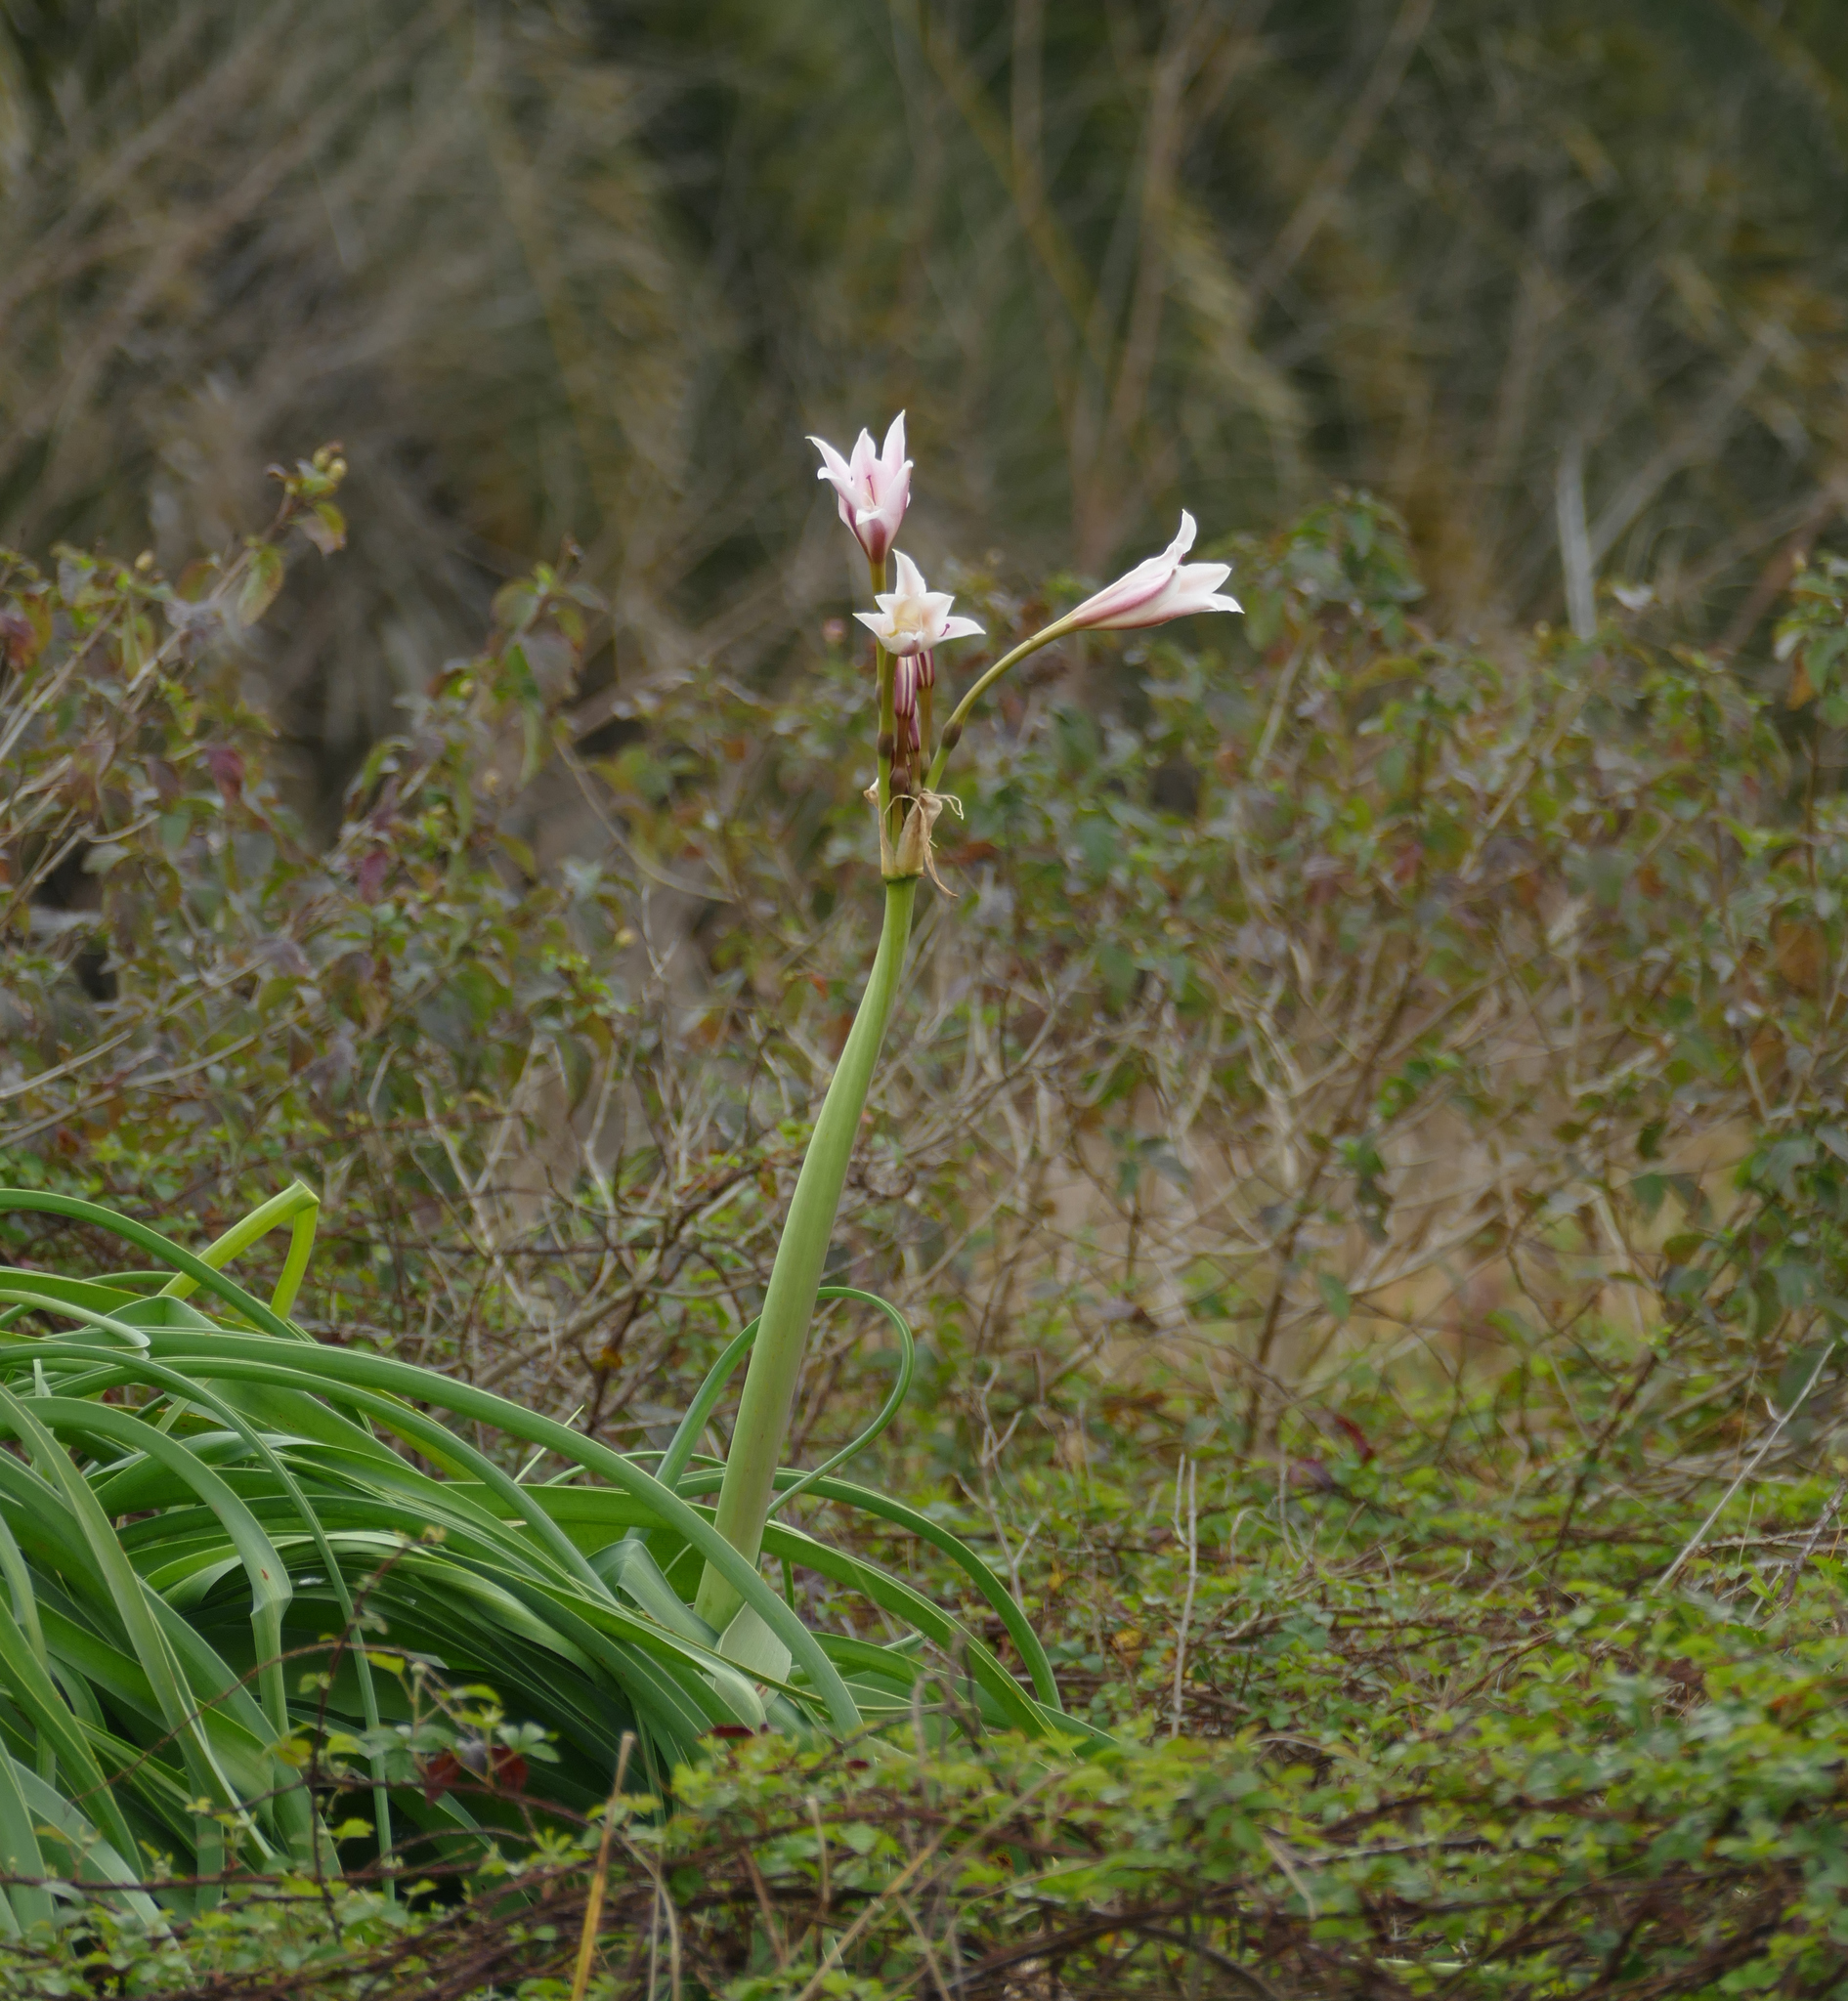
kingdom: Plantae
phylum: Tracheophyta
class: Liliopsida
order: Asparagales
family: Amaryllidaceae
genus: Crinum
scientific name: Crinum bulbispermum
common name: Hardy swamplily
